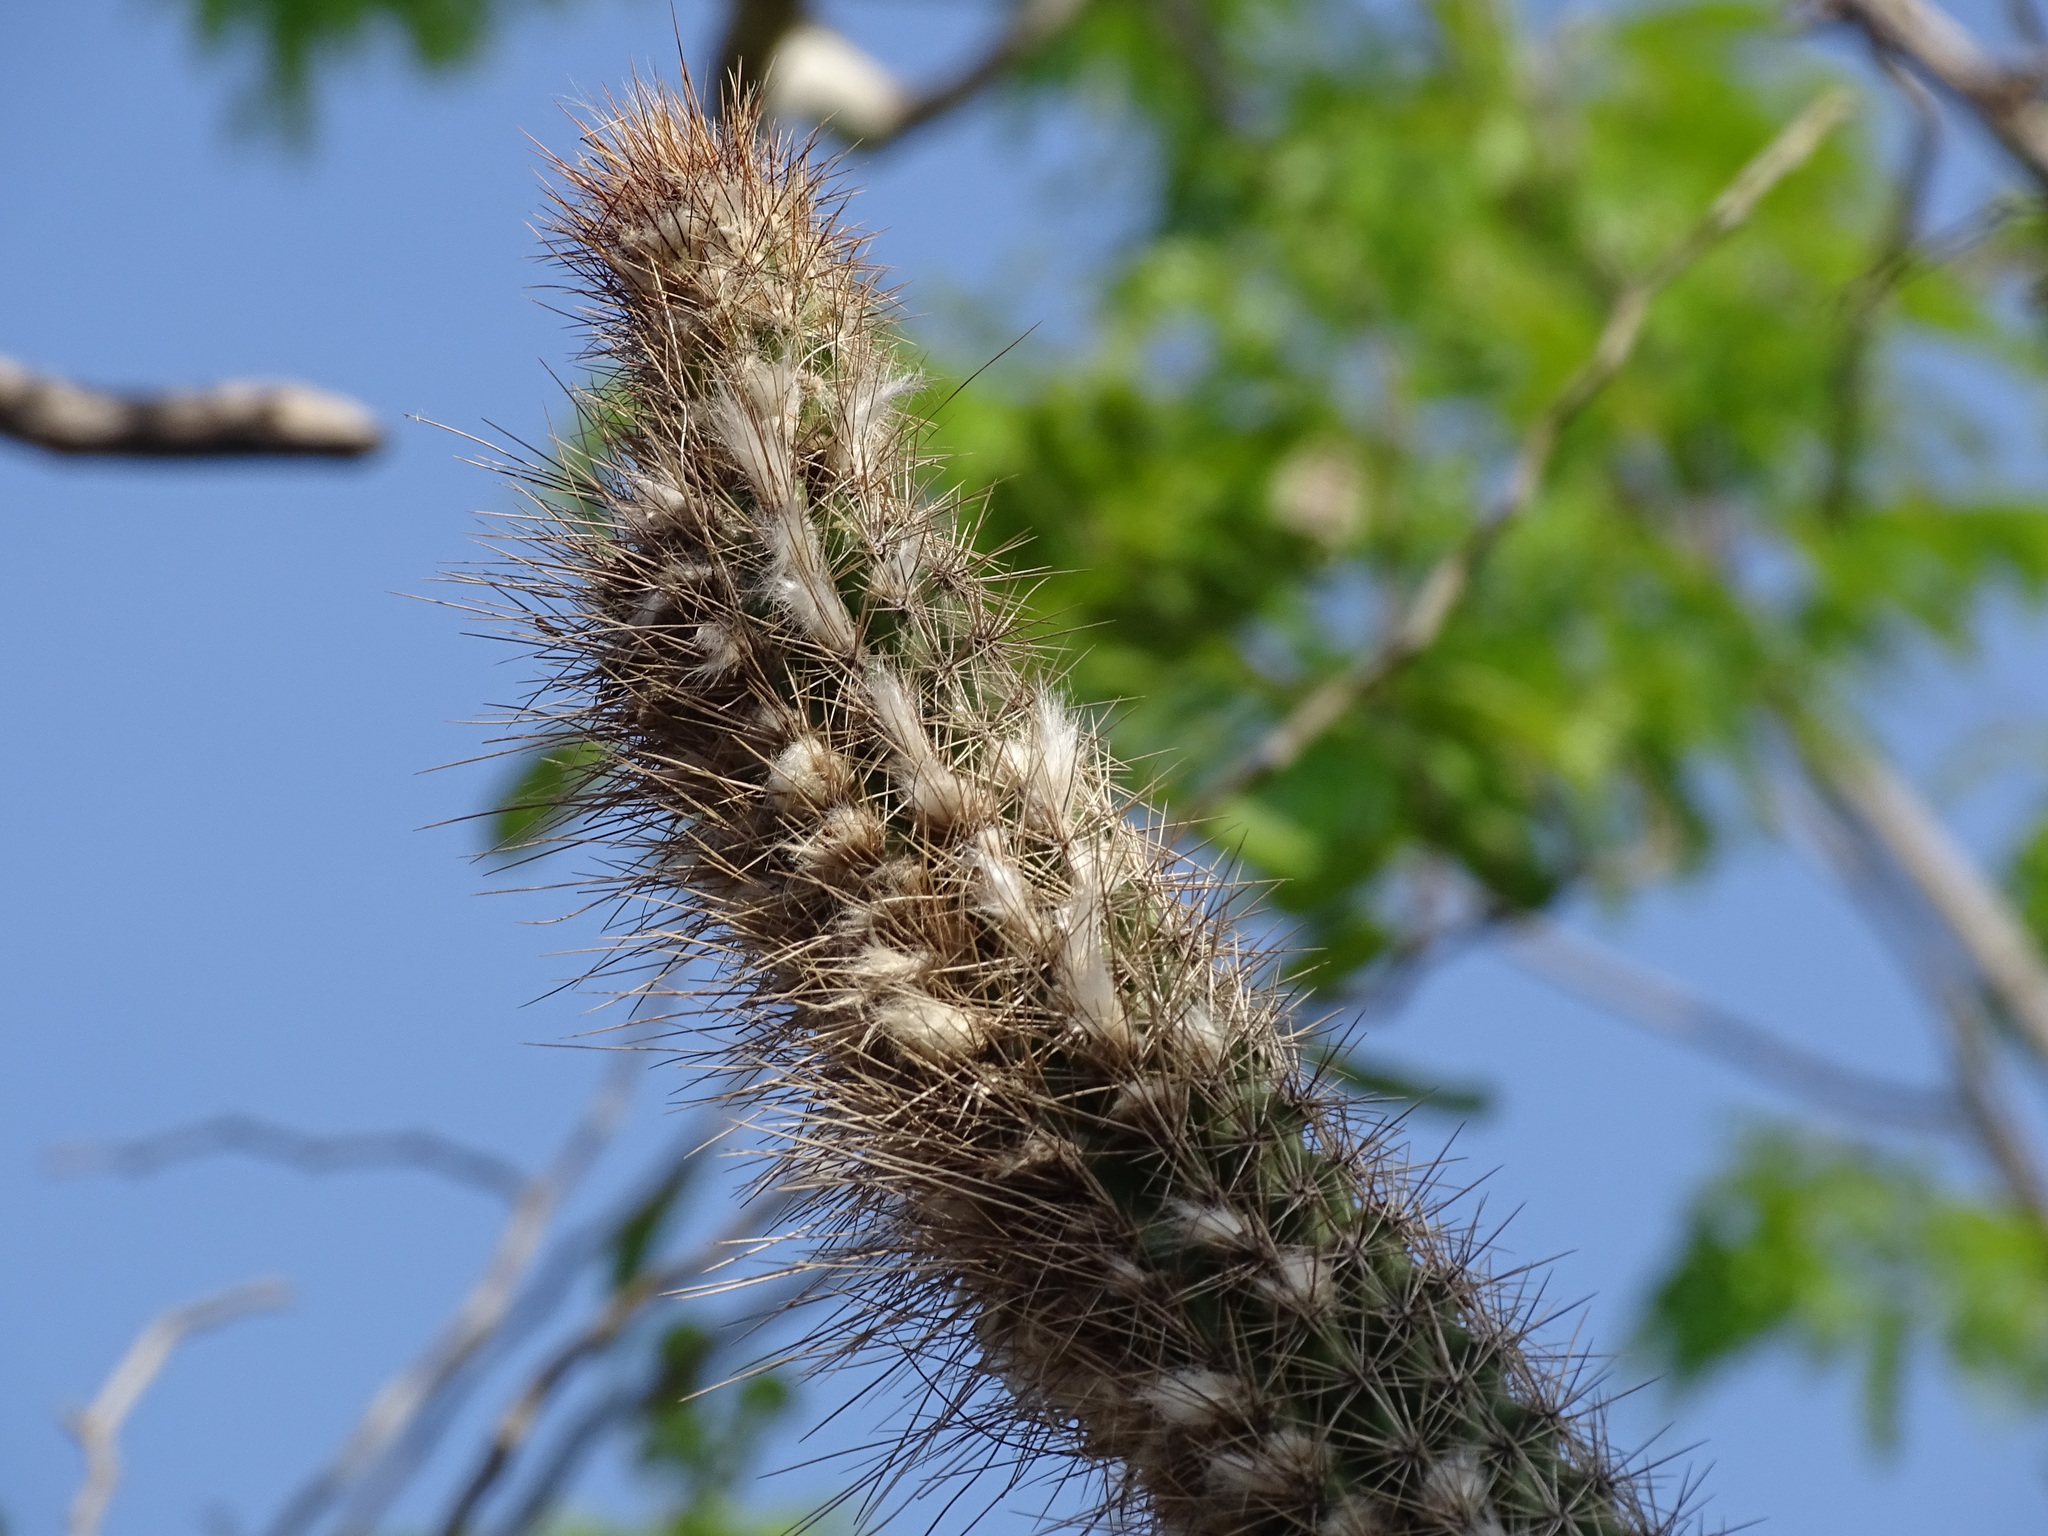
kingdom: Plantae
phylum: Tracheophyta
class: Magnoliopsida
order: Caryophyllales
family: Cactaceae
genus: Pilosocereus
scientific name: Pilosocereus gaumeri
